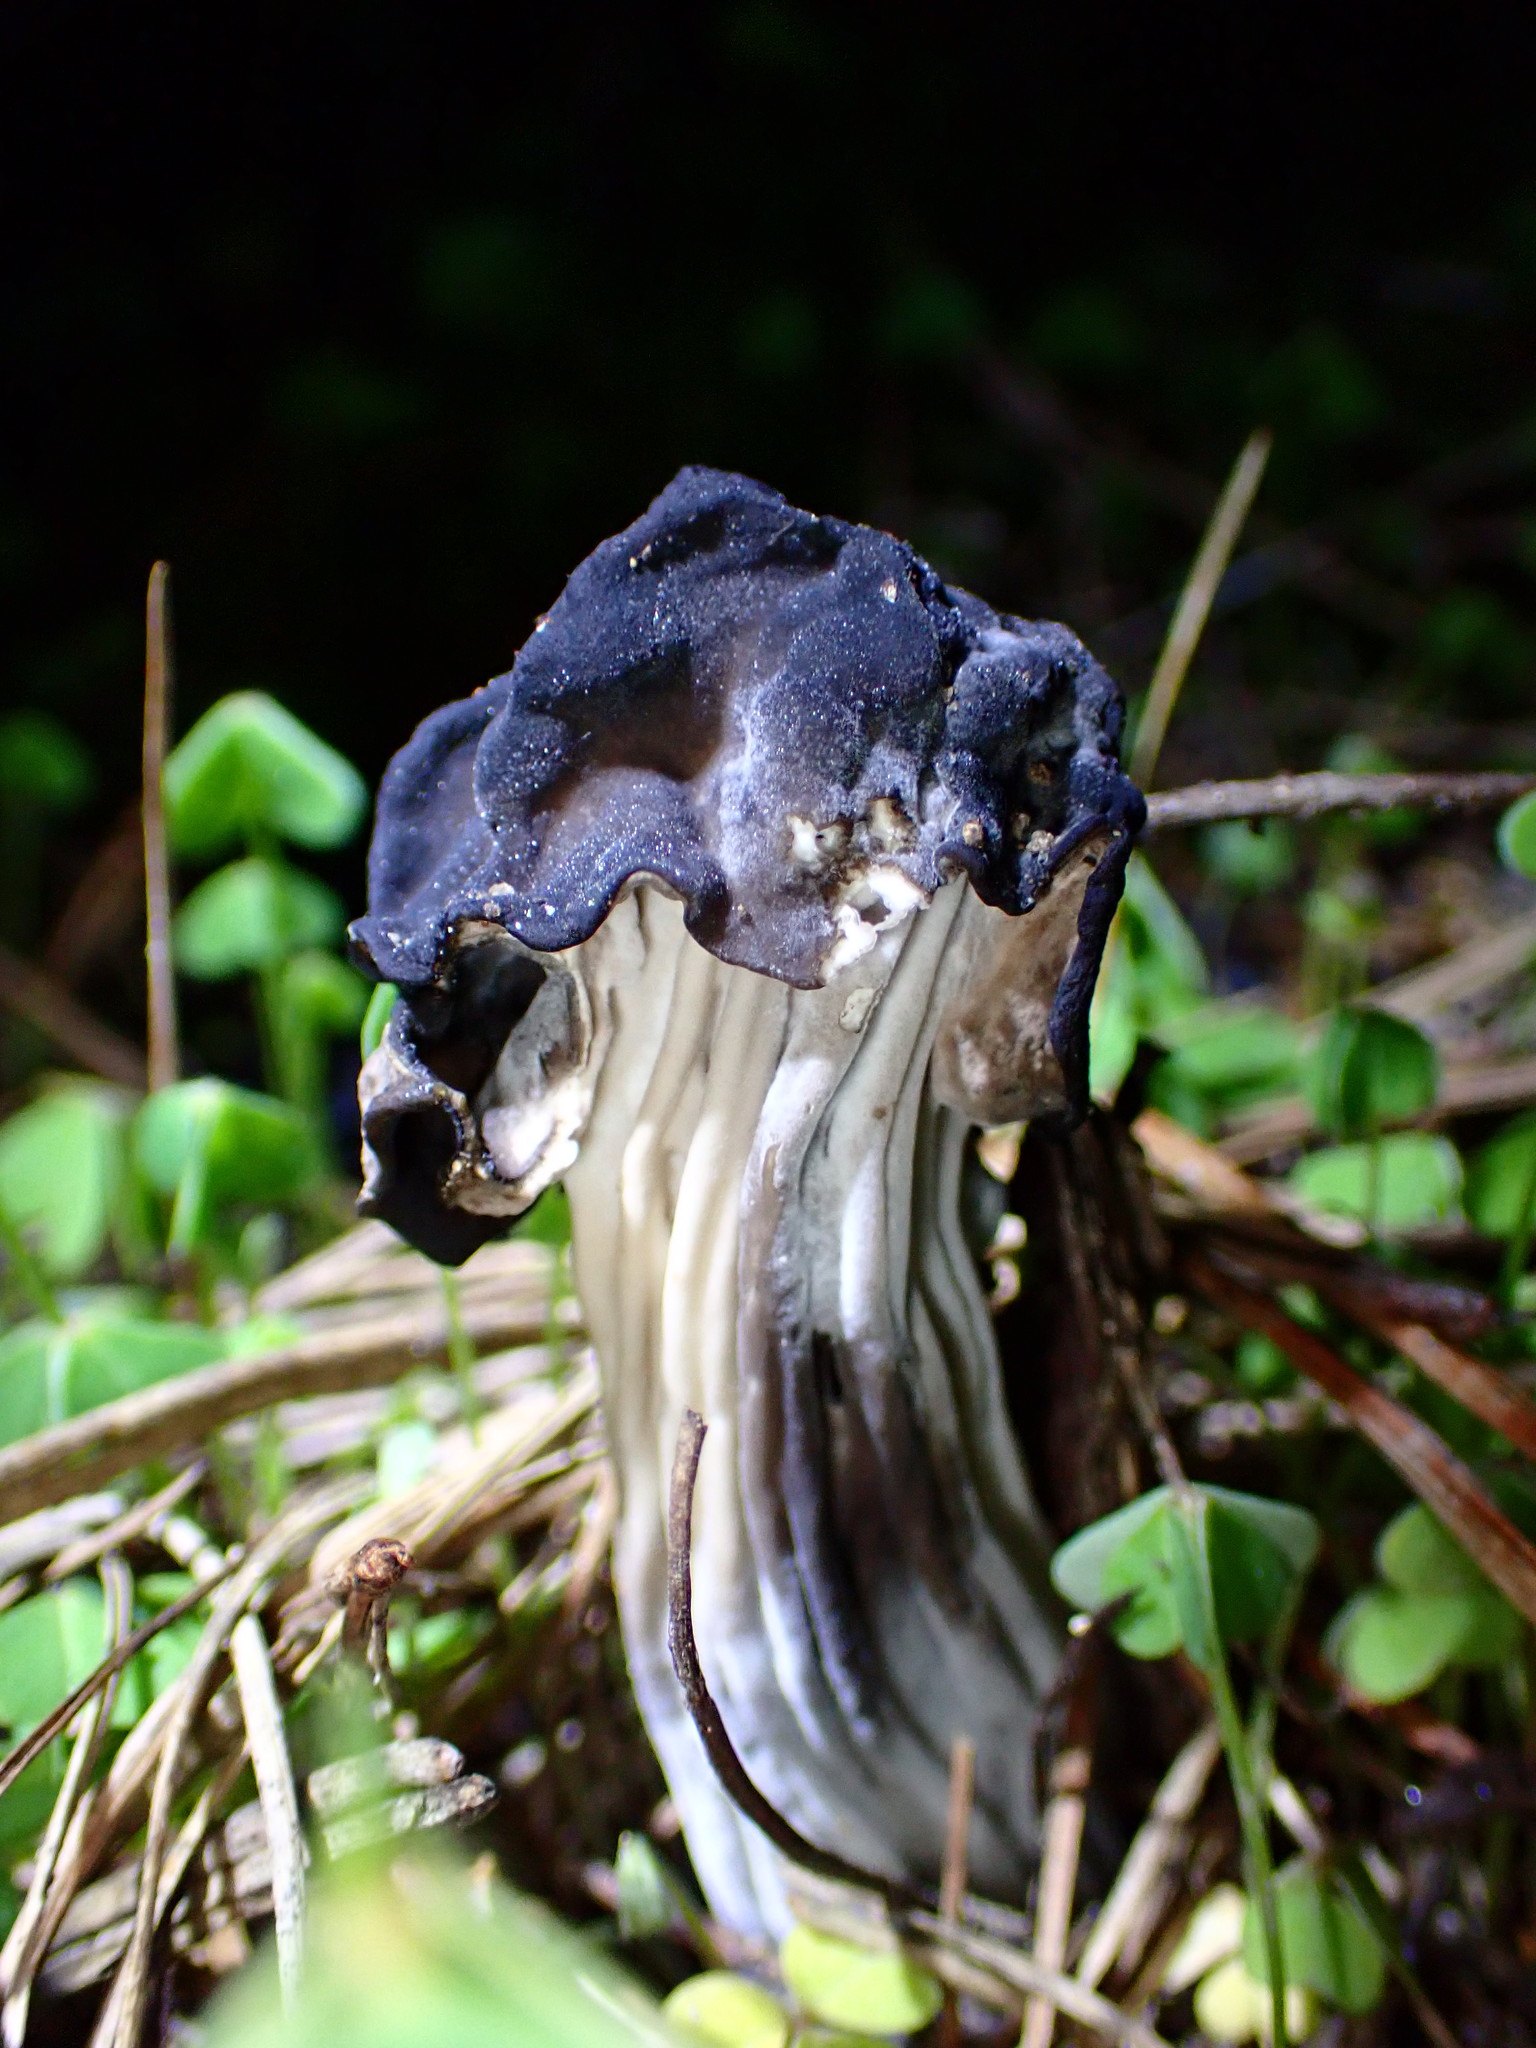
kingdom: Fungi
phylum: Ascomycota
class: Pezizomycetes
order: Pezizales
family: Helvellaceae
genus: Helvella
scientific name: Helvella vespertina
